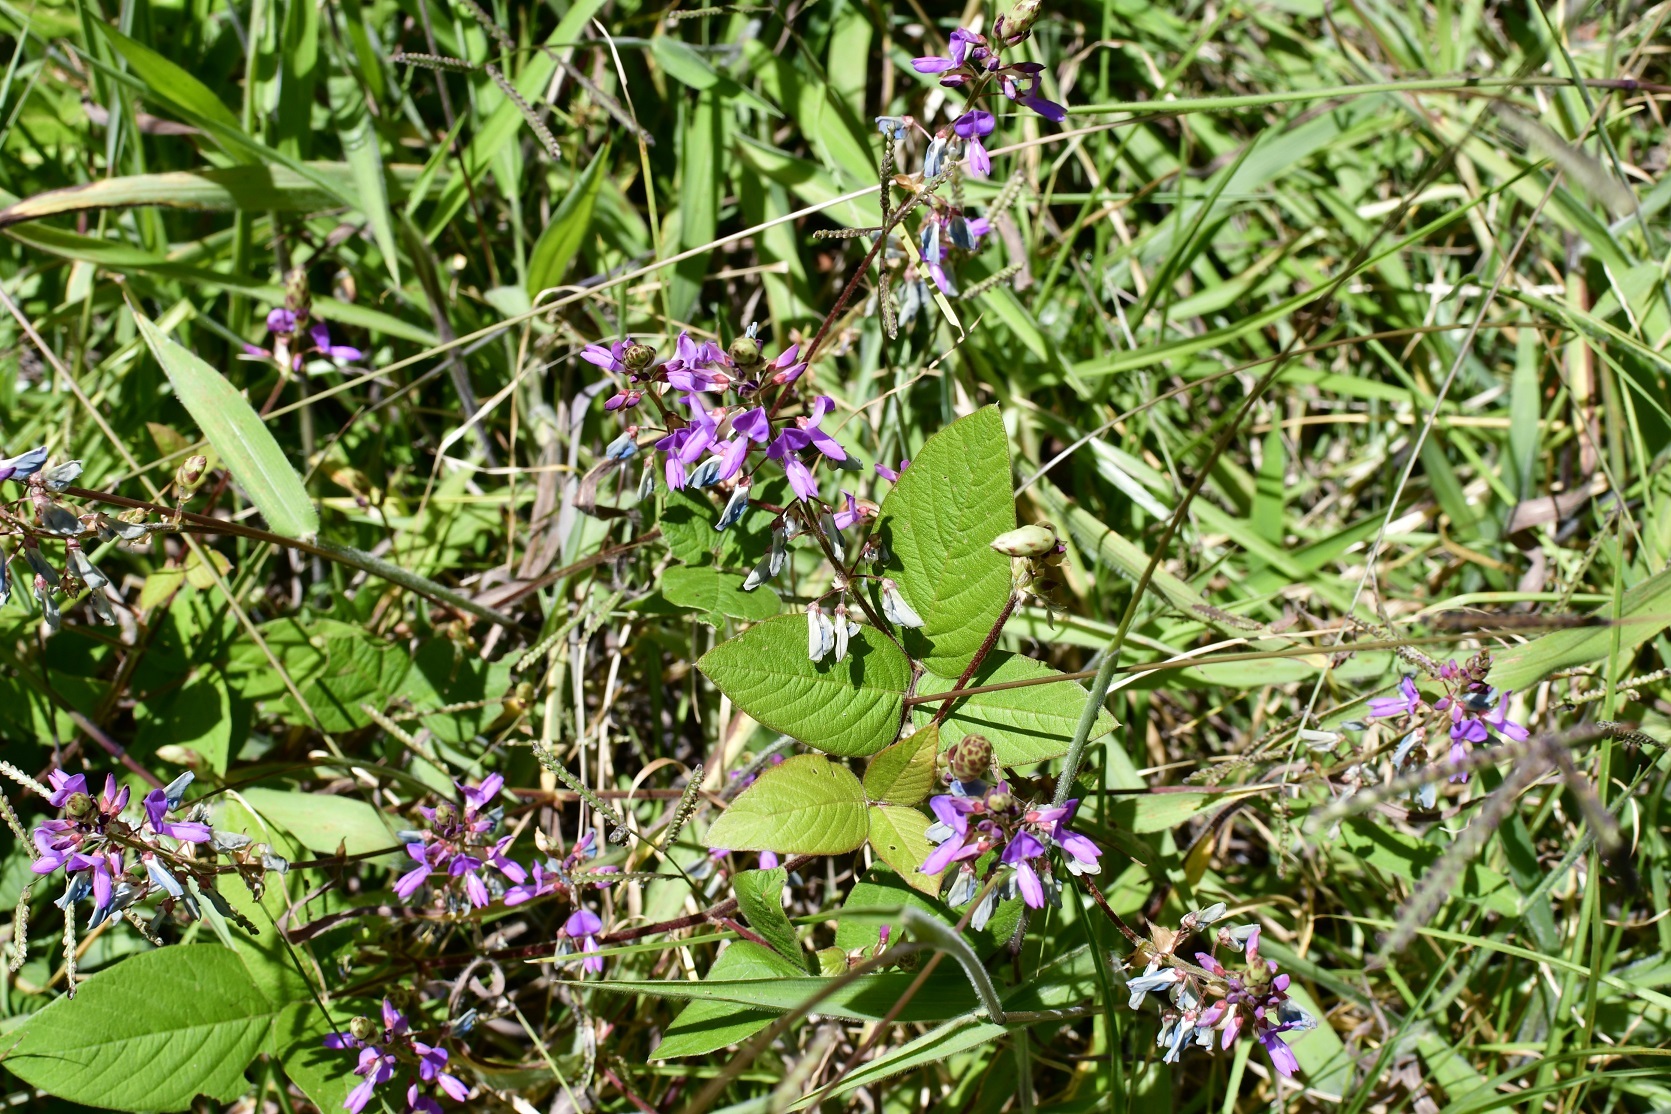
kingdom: Plantae
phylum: Tracheophyta
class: Magnoliopsida
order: Fabales
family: Fabaceae
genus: Desmodium
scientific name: Desmodium pringlei
